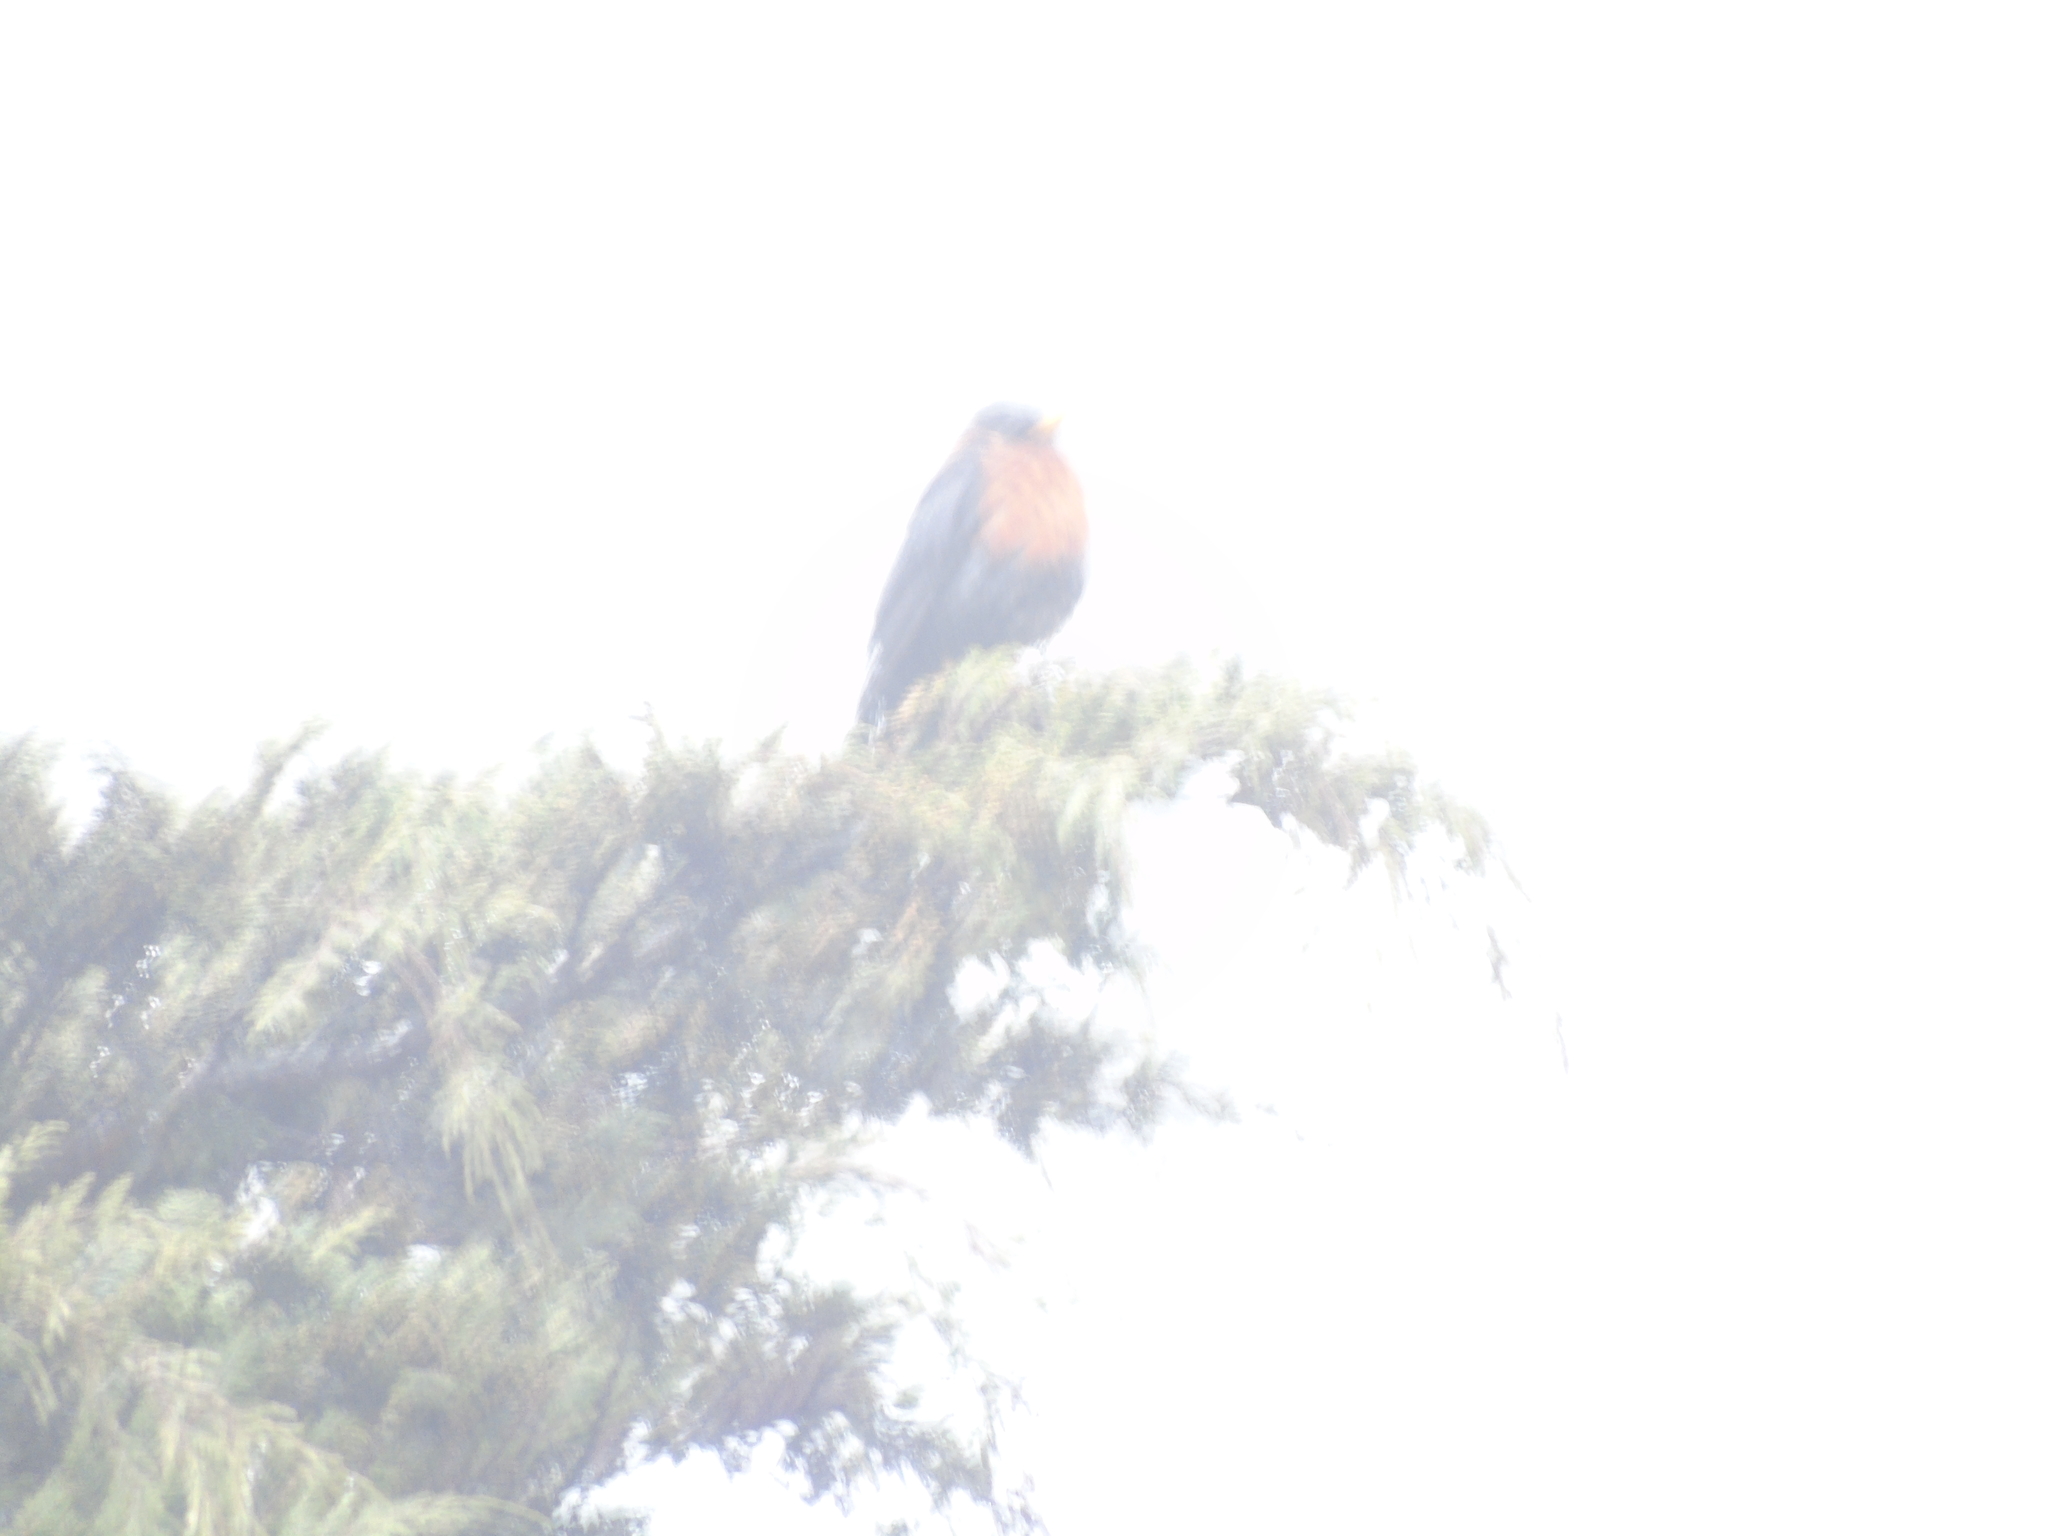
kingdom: Animalia
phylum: Chordata
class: Aves
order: Passeriformes
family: Turdidae
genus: Turdus
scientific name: Turdus rufitorques
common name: Rufous-collared thrush
